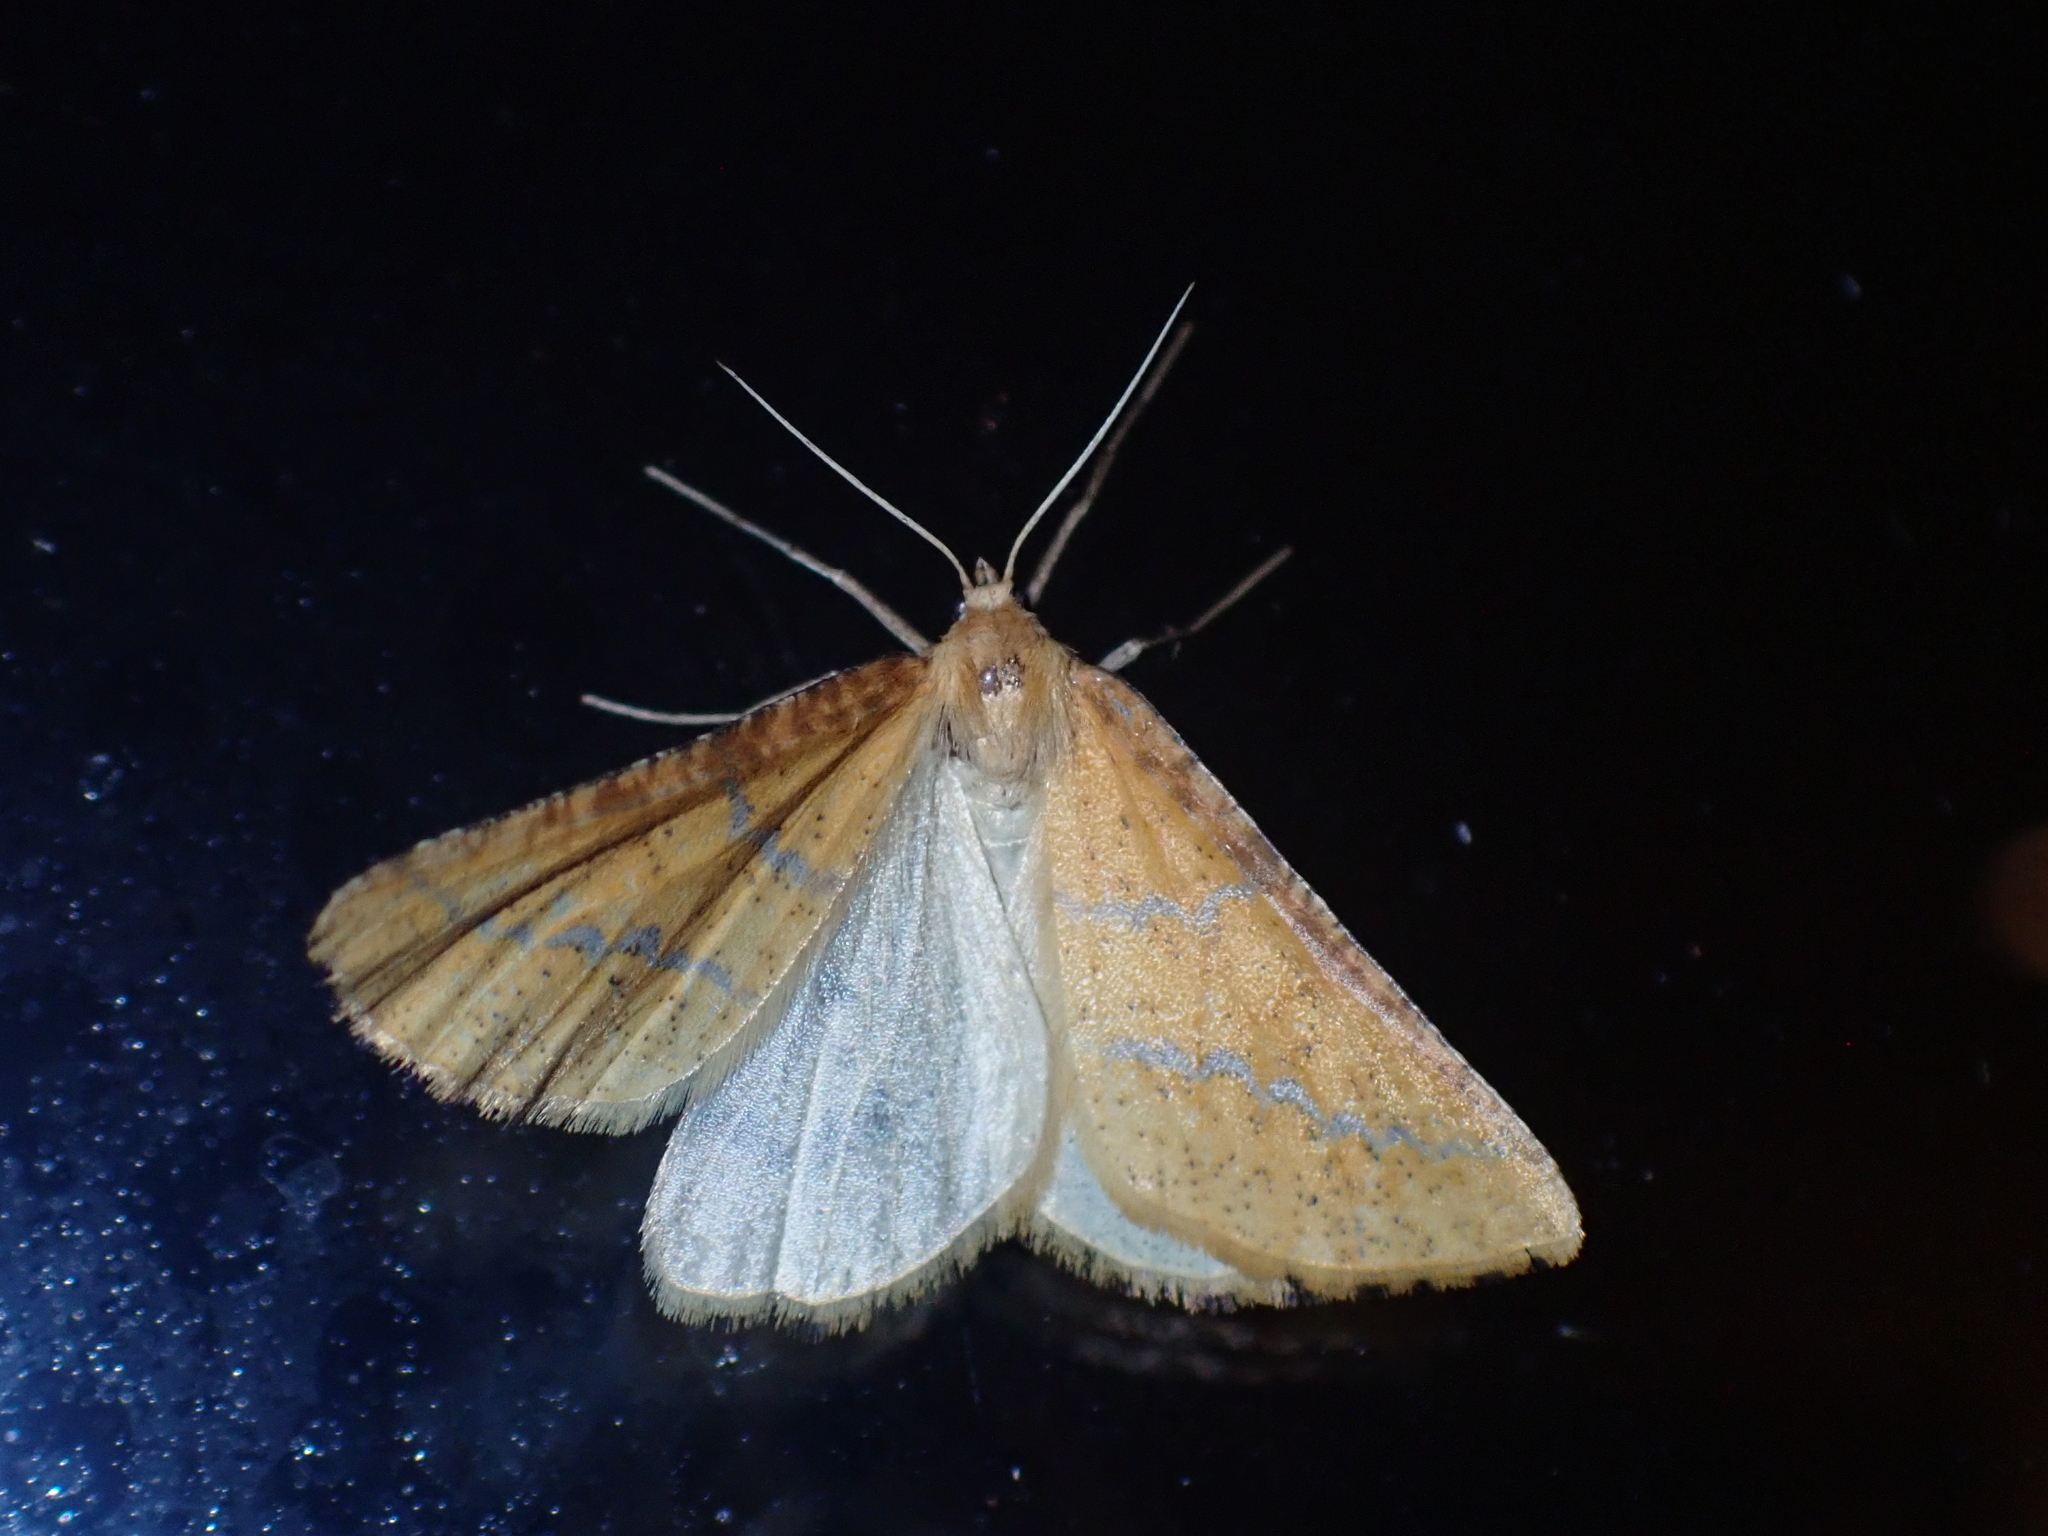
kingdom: Animalia
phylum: Arthropoda
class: Insecta
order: Lepidoptera
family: Geometridae
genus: Aspitates
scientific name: Aspitates ochrearia
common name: Yellow belle
